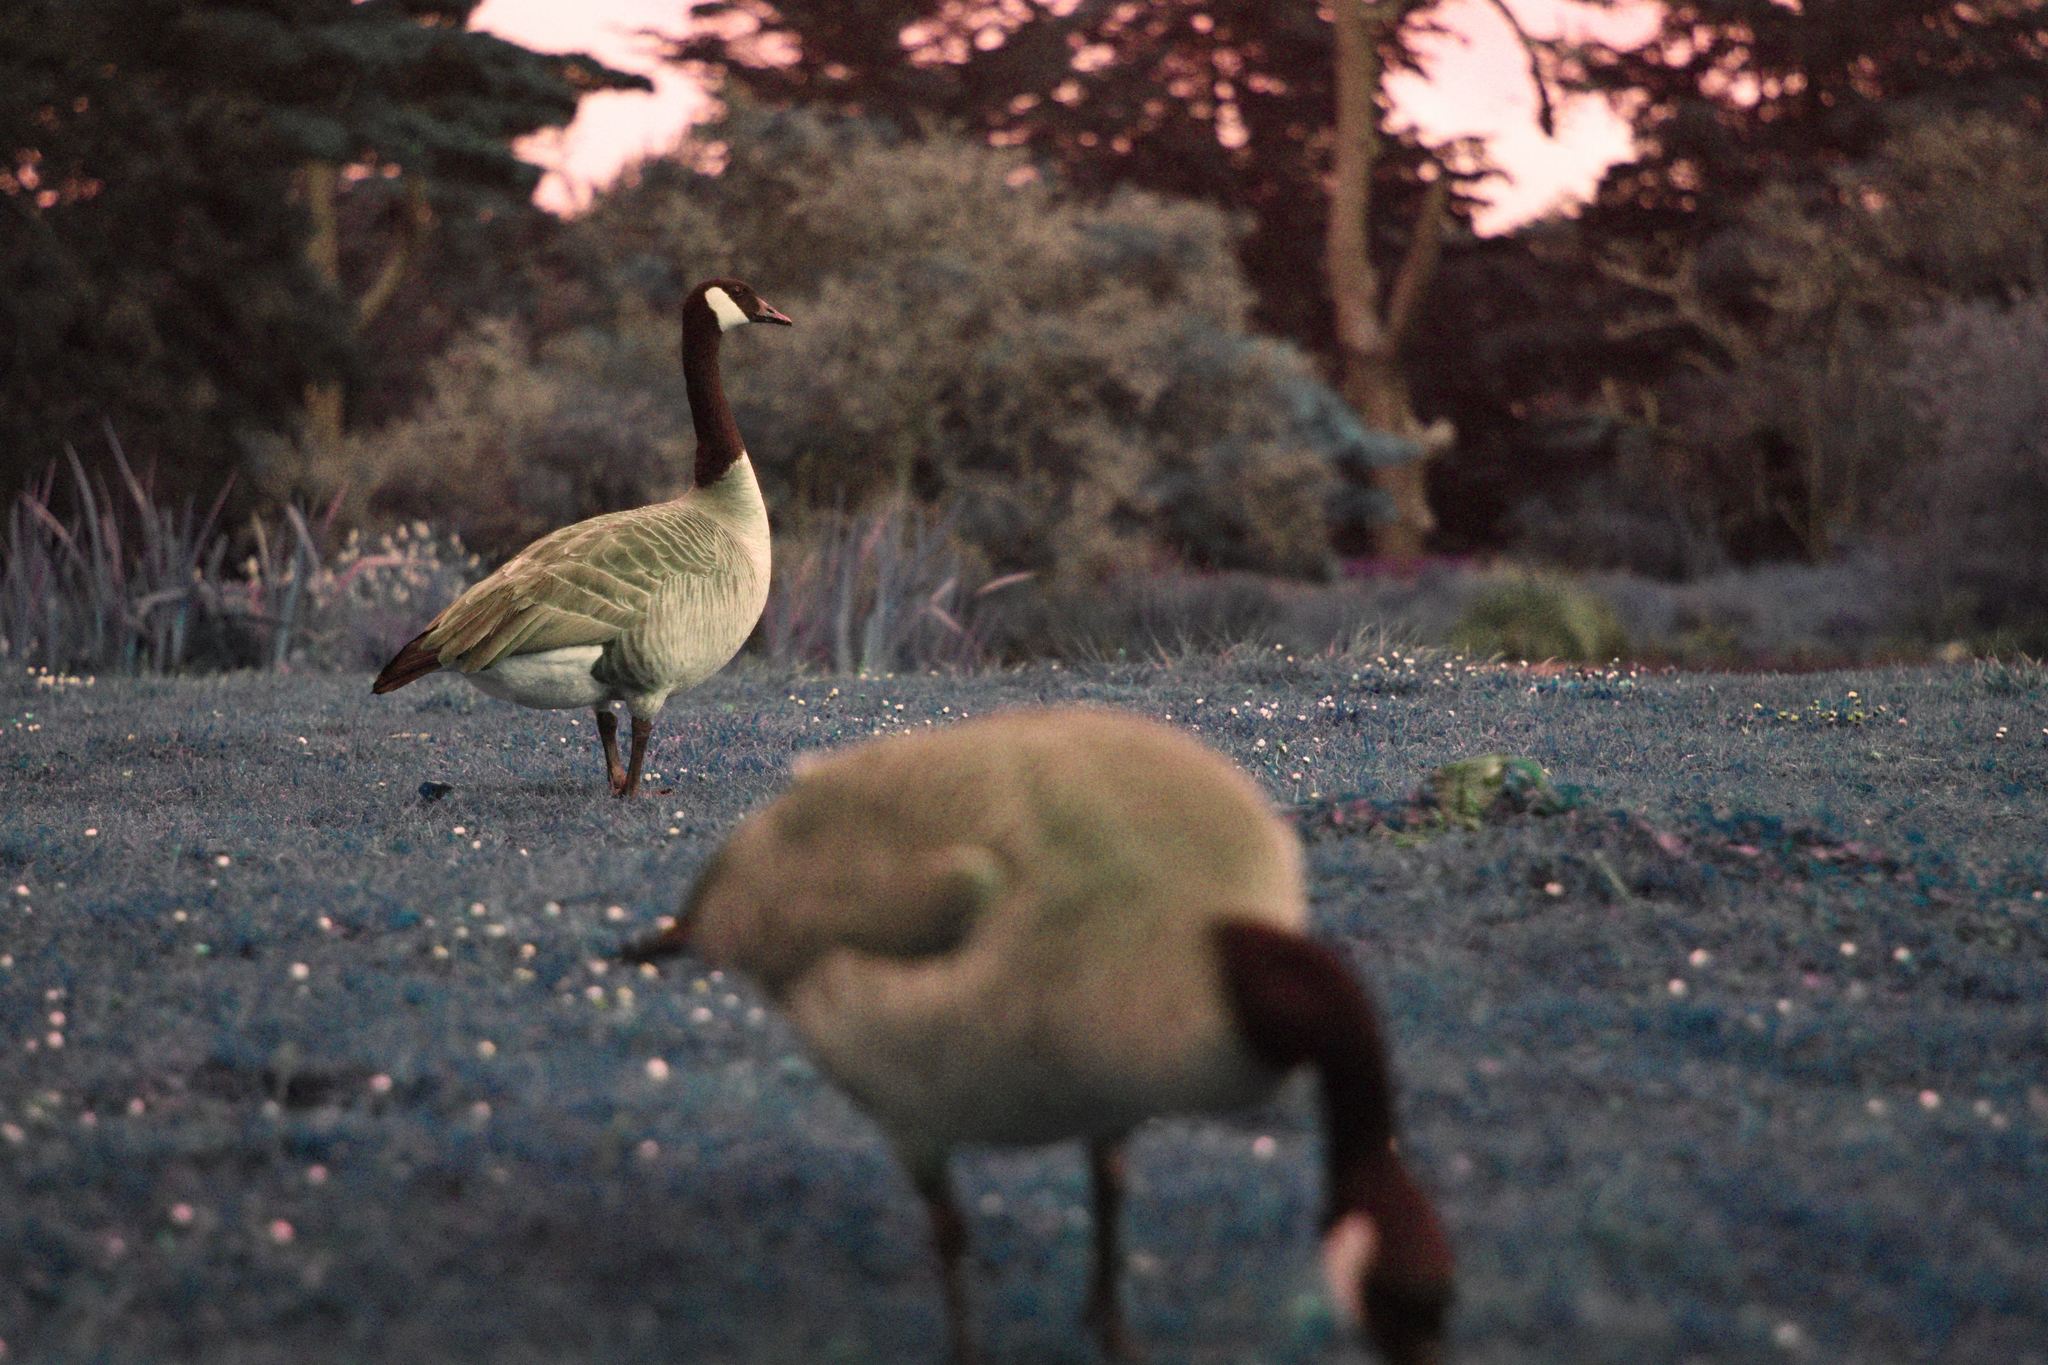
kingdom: Animalia
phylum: Chordata
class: Aves
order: Anseriformes
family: Anatidae
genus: Branta
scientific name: Branta canadensis
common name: Canada goose
